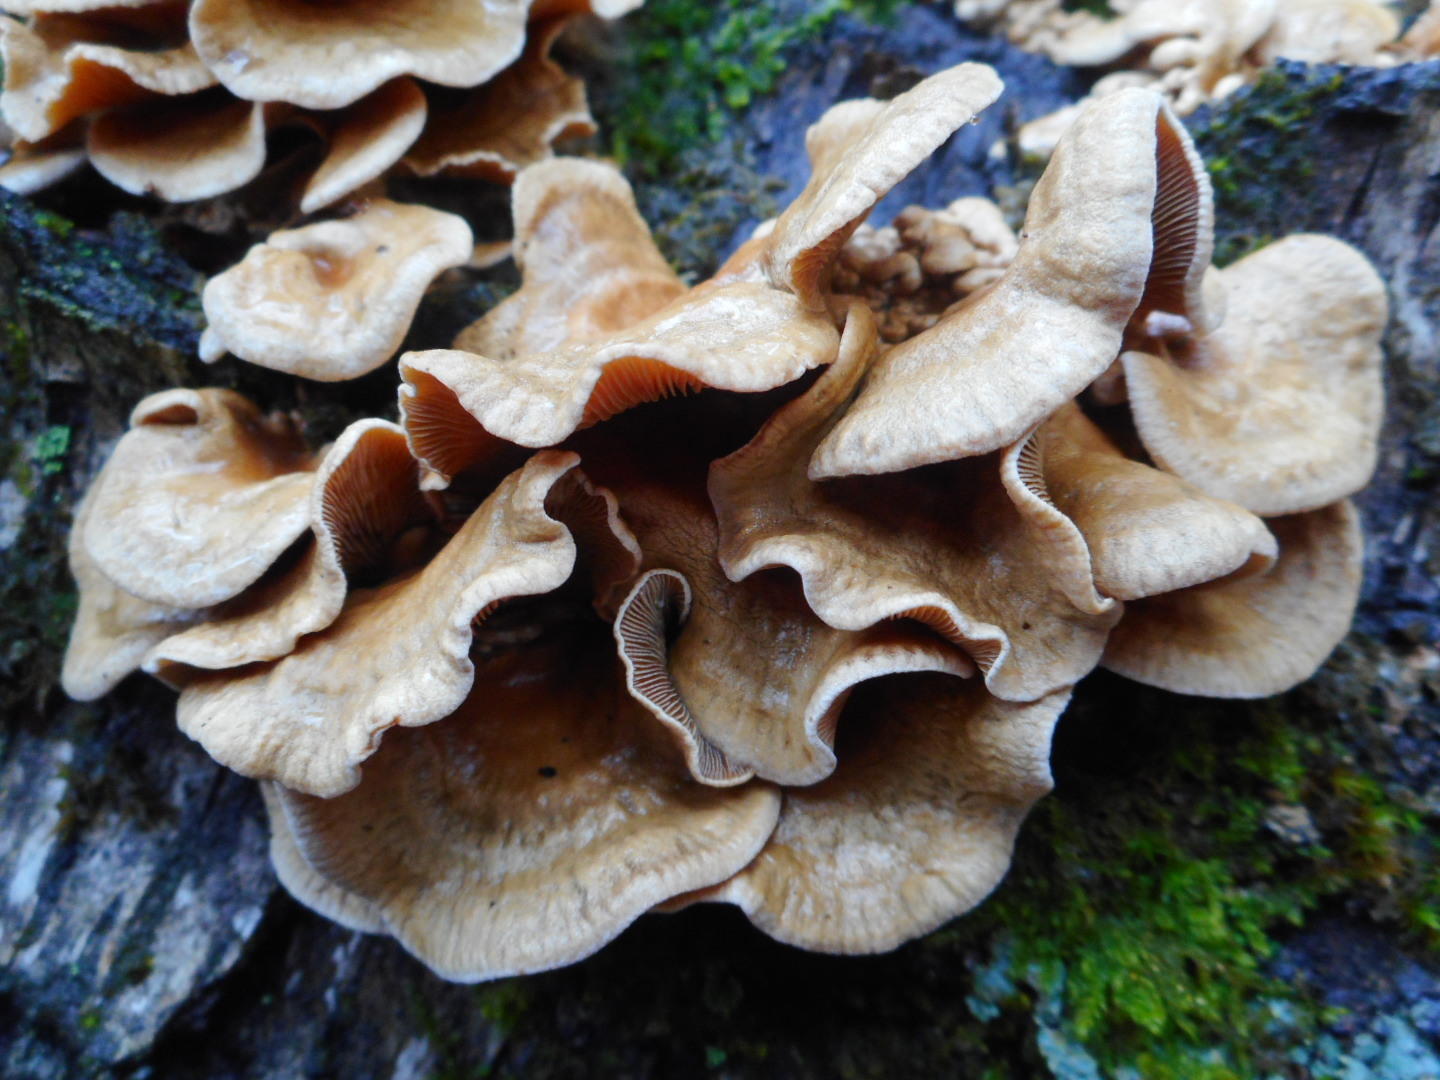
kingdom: Fungi
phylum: Basidiomycota
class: Agaricomycetes
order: Agaricales
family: Mycenaceae
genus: Panellus
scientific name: Panellus stipticus
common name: Bitter oysterling
